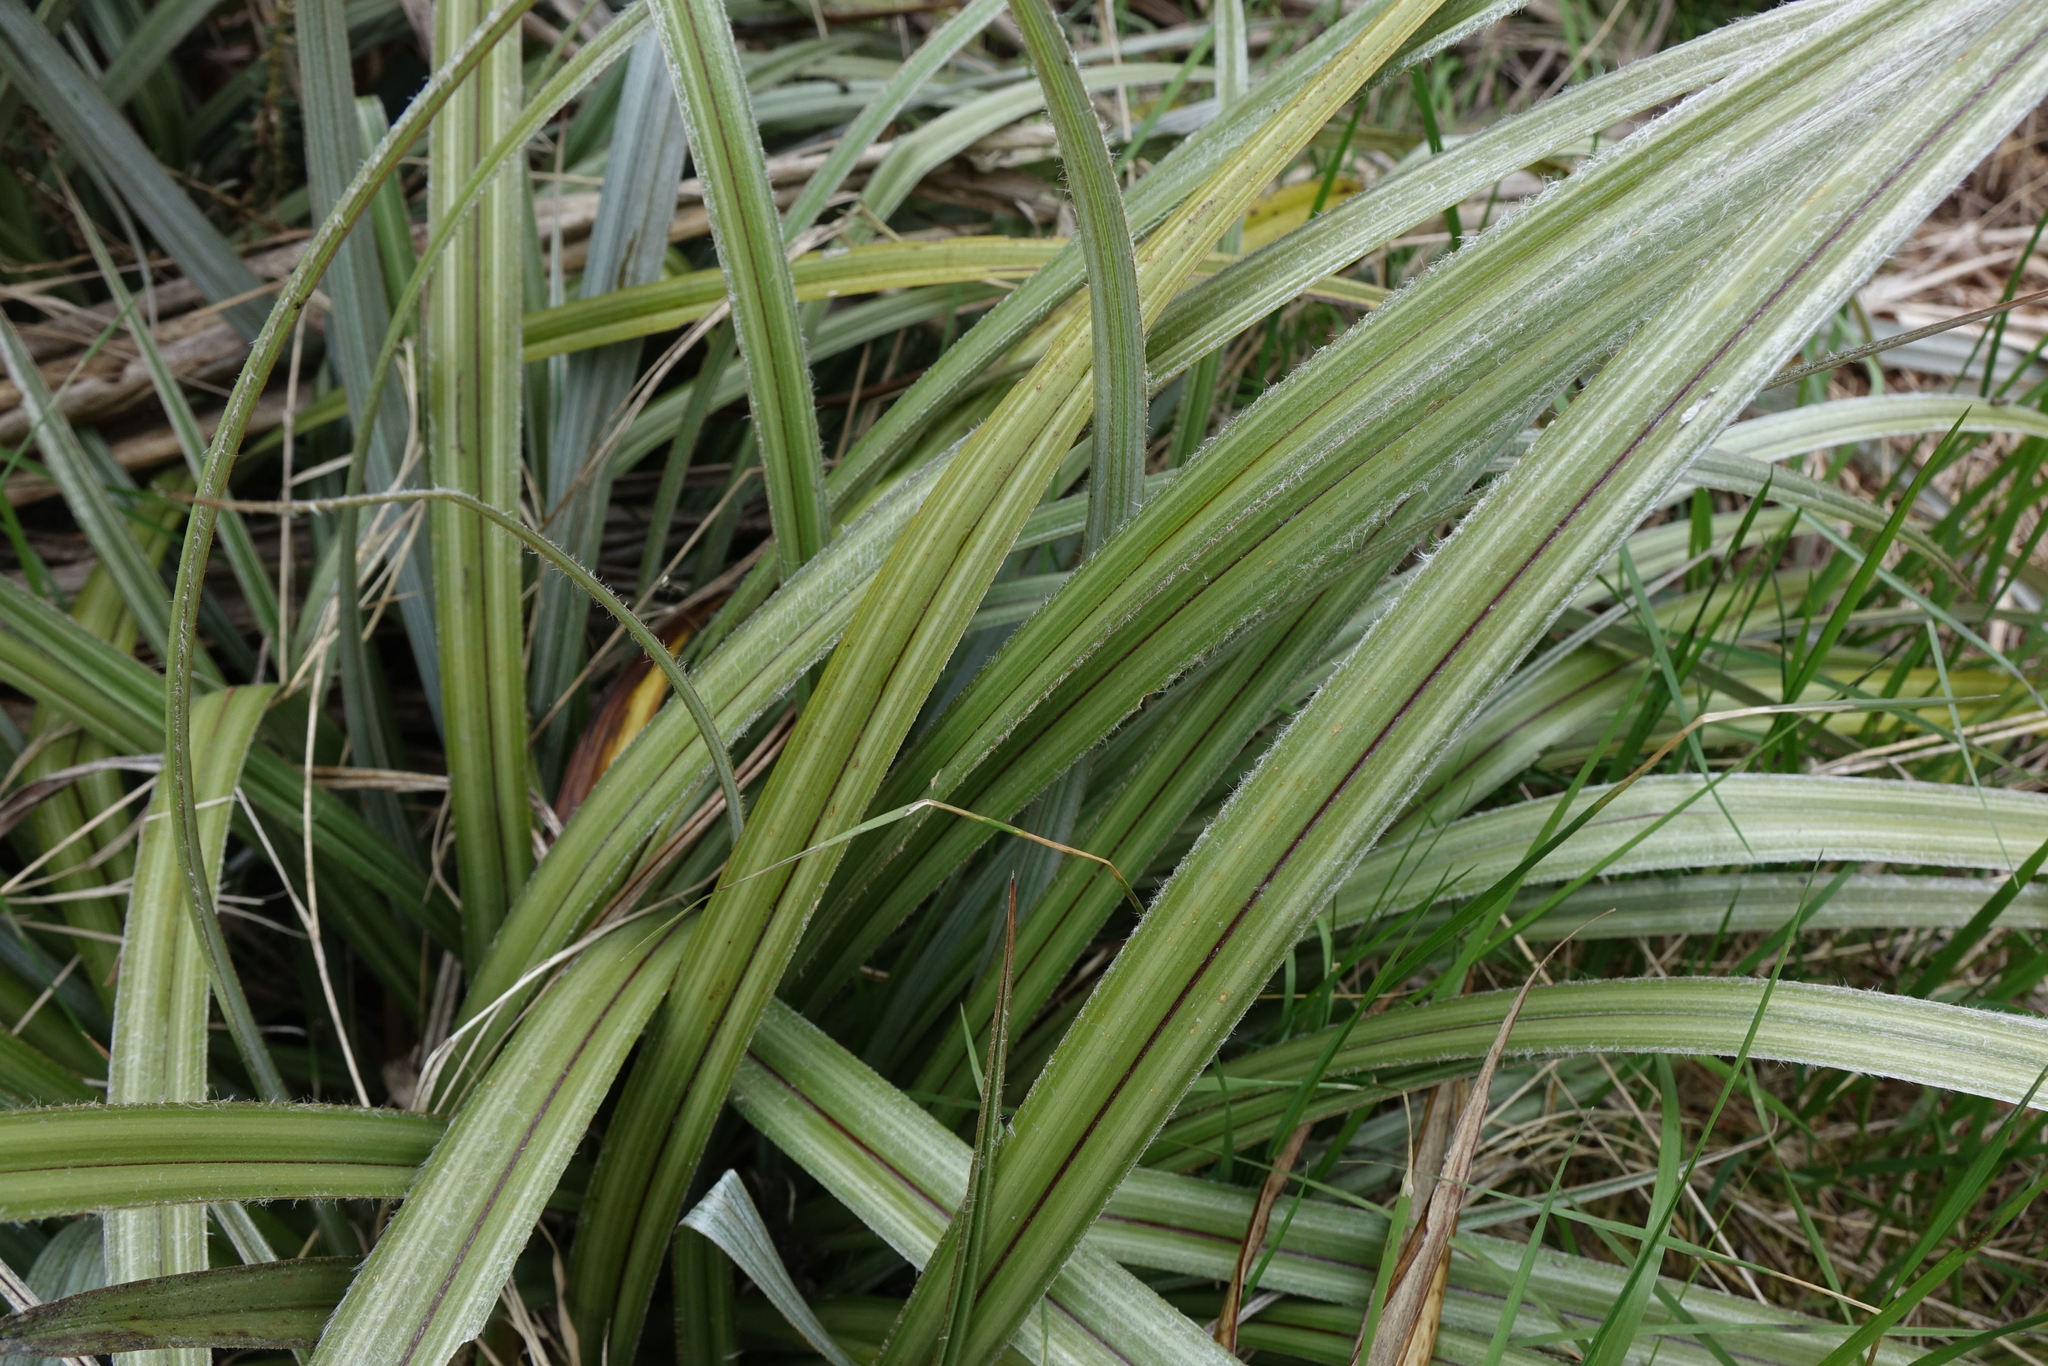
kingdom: Plantae
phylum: Tracheophyta
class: Liliopsida
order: Asparagales
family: Asteliaceae
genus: Astelia
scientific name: Astelia nervosa
